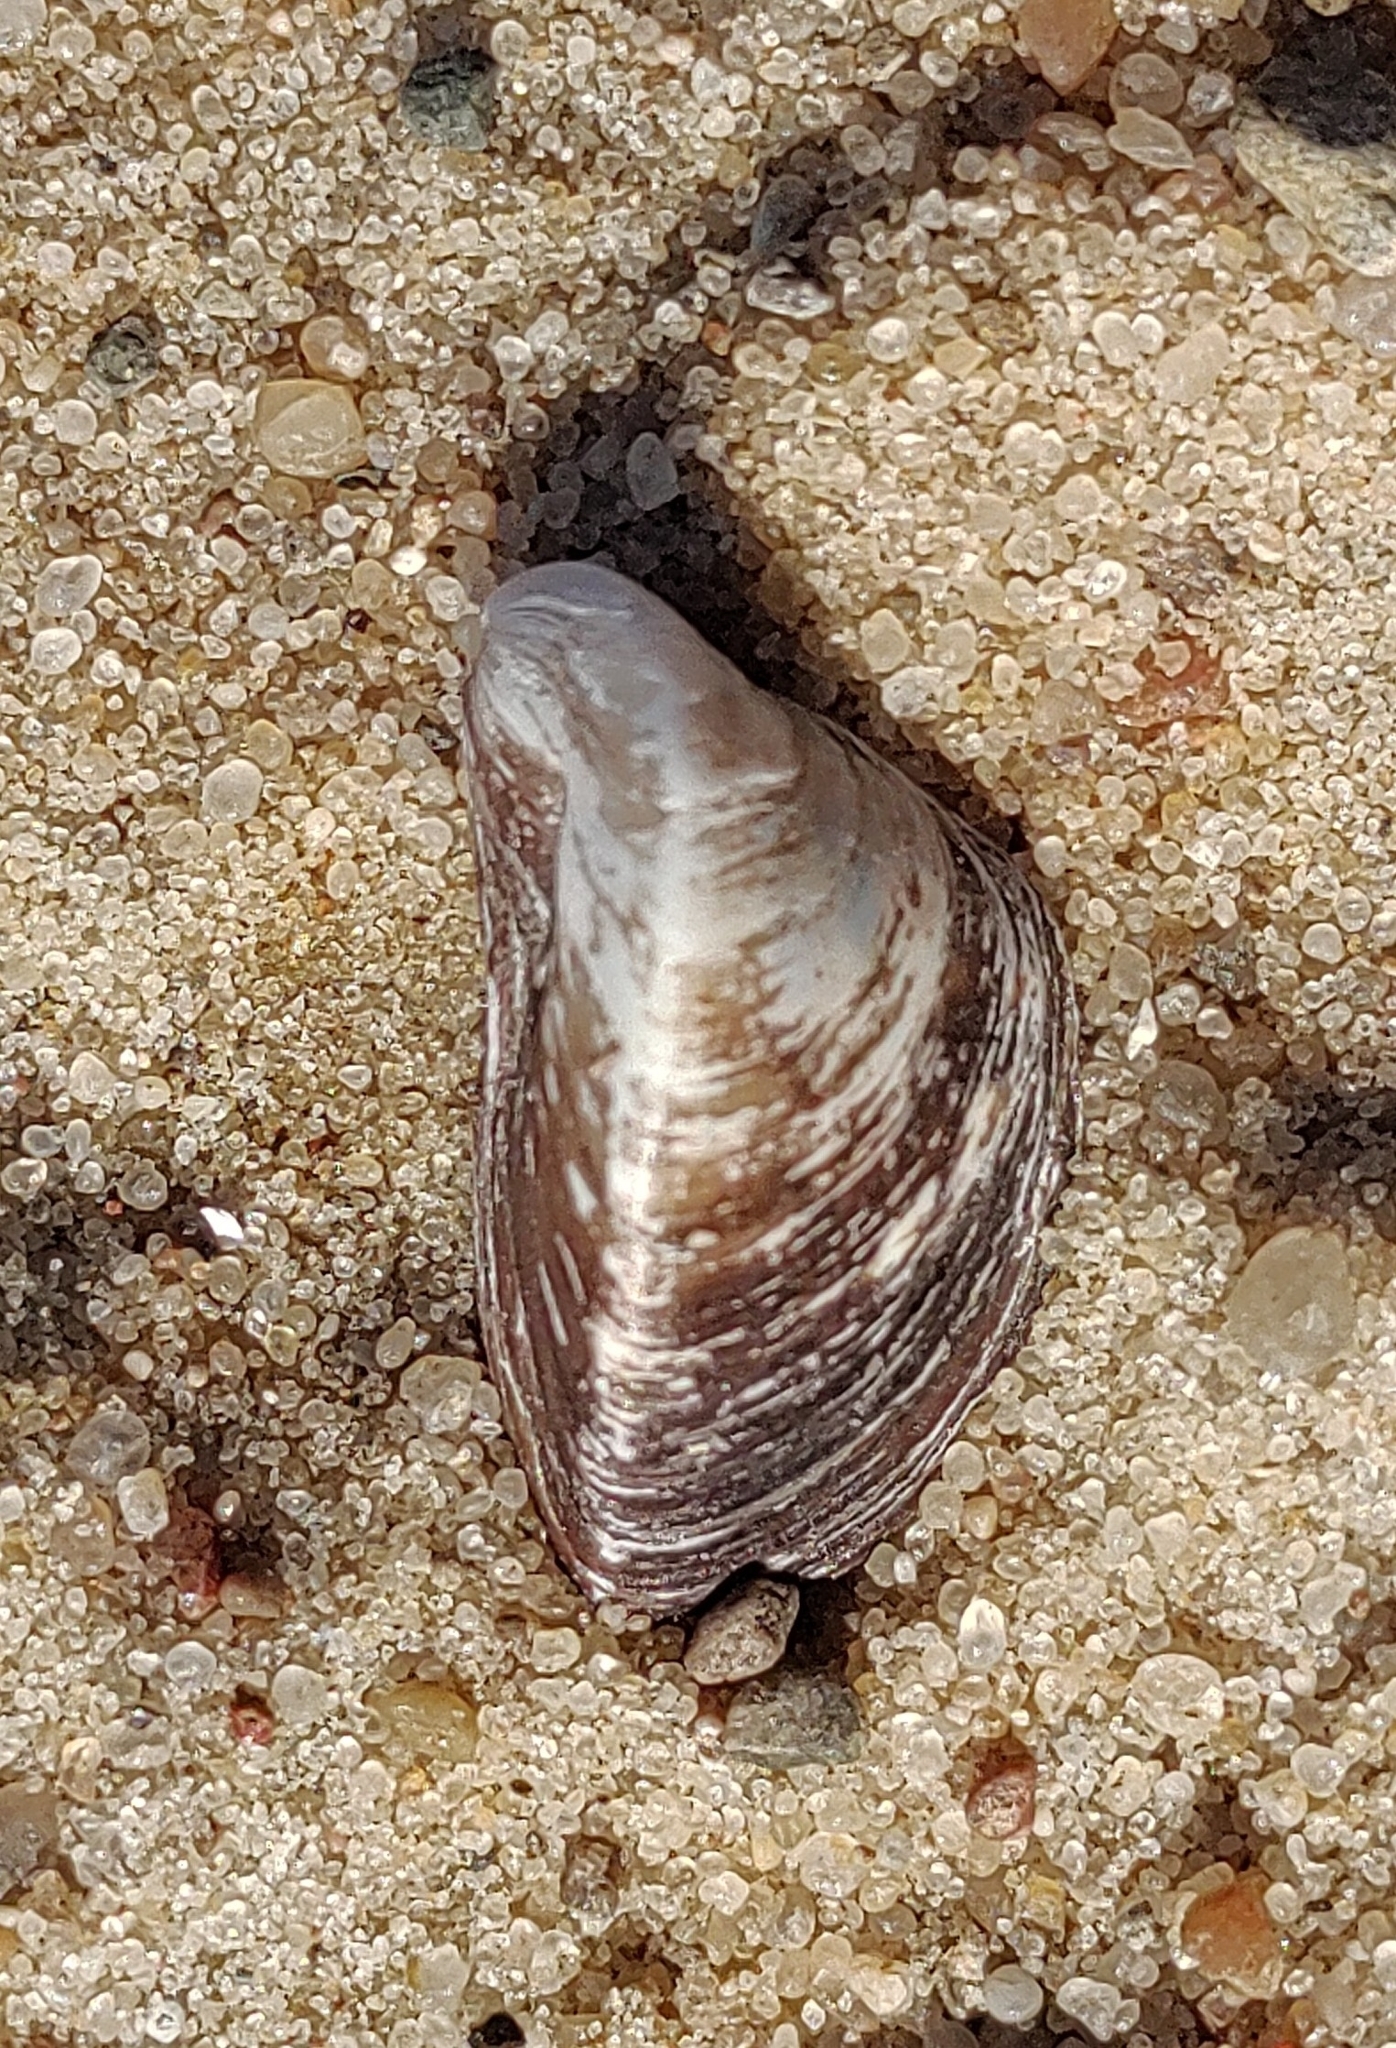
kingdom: Animalia
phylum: Mollusca
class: Bivalvia
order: Myida
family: Dreissenidae
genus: Dreissena
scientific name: Dreissena polymorpha
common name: Zebra mussel
